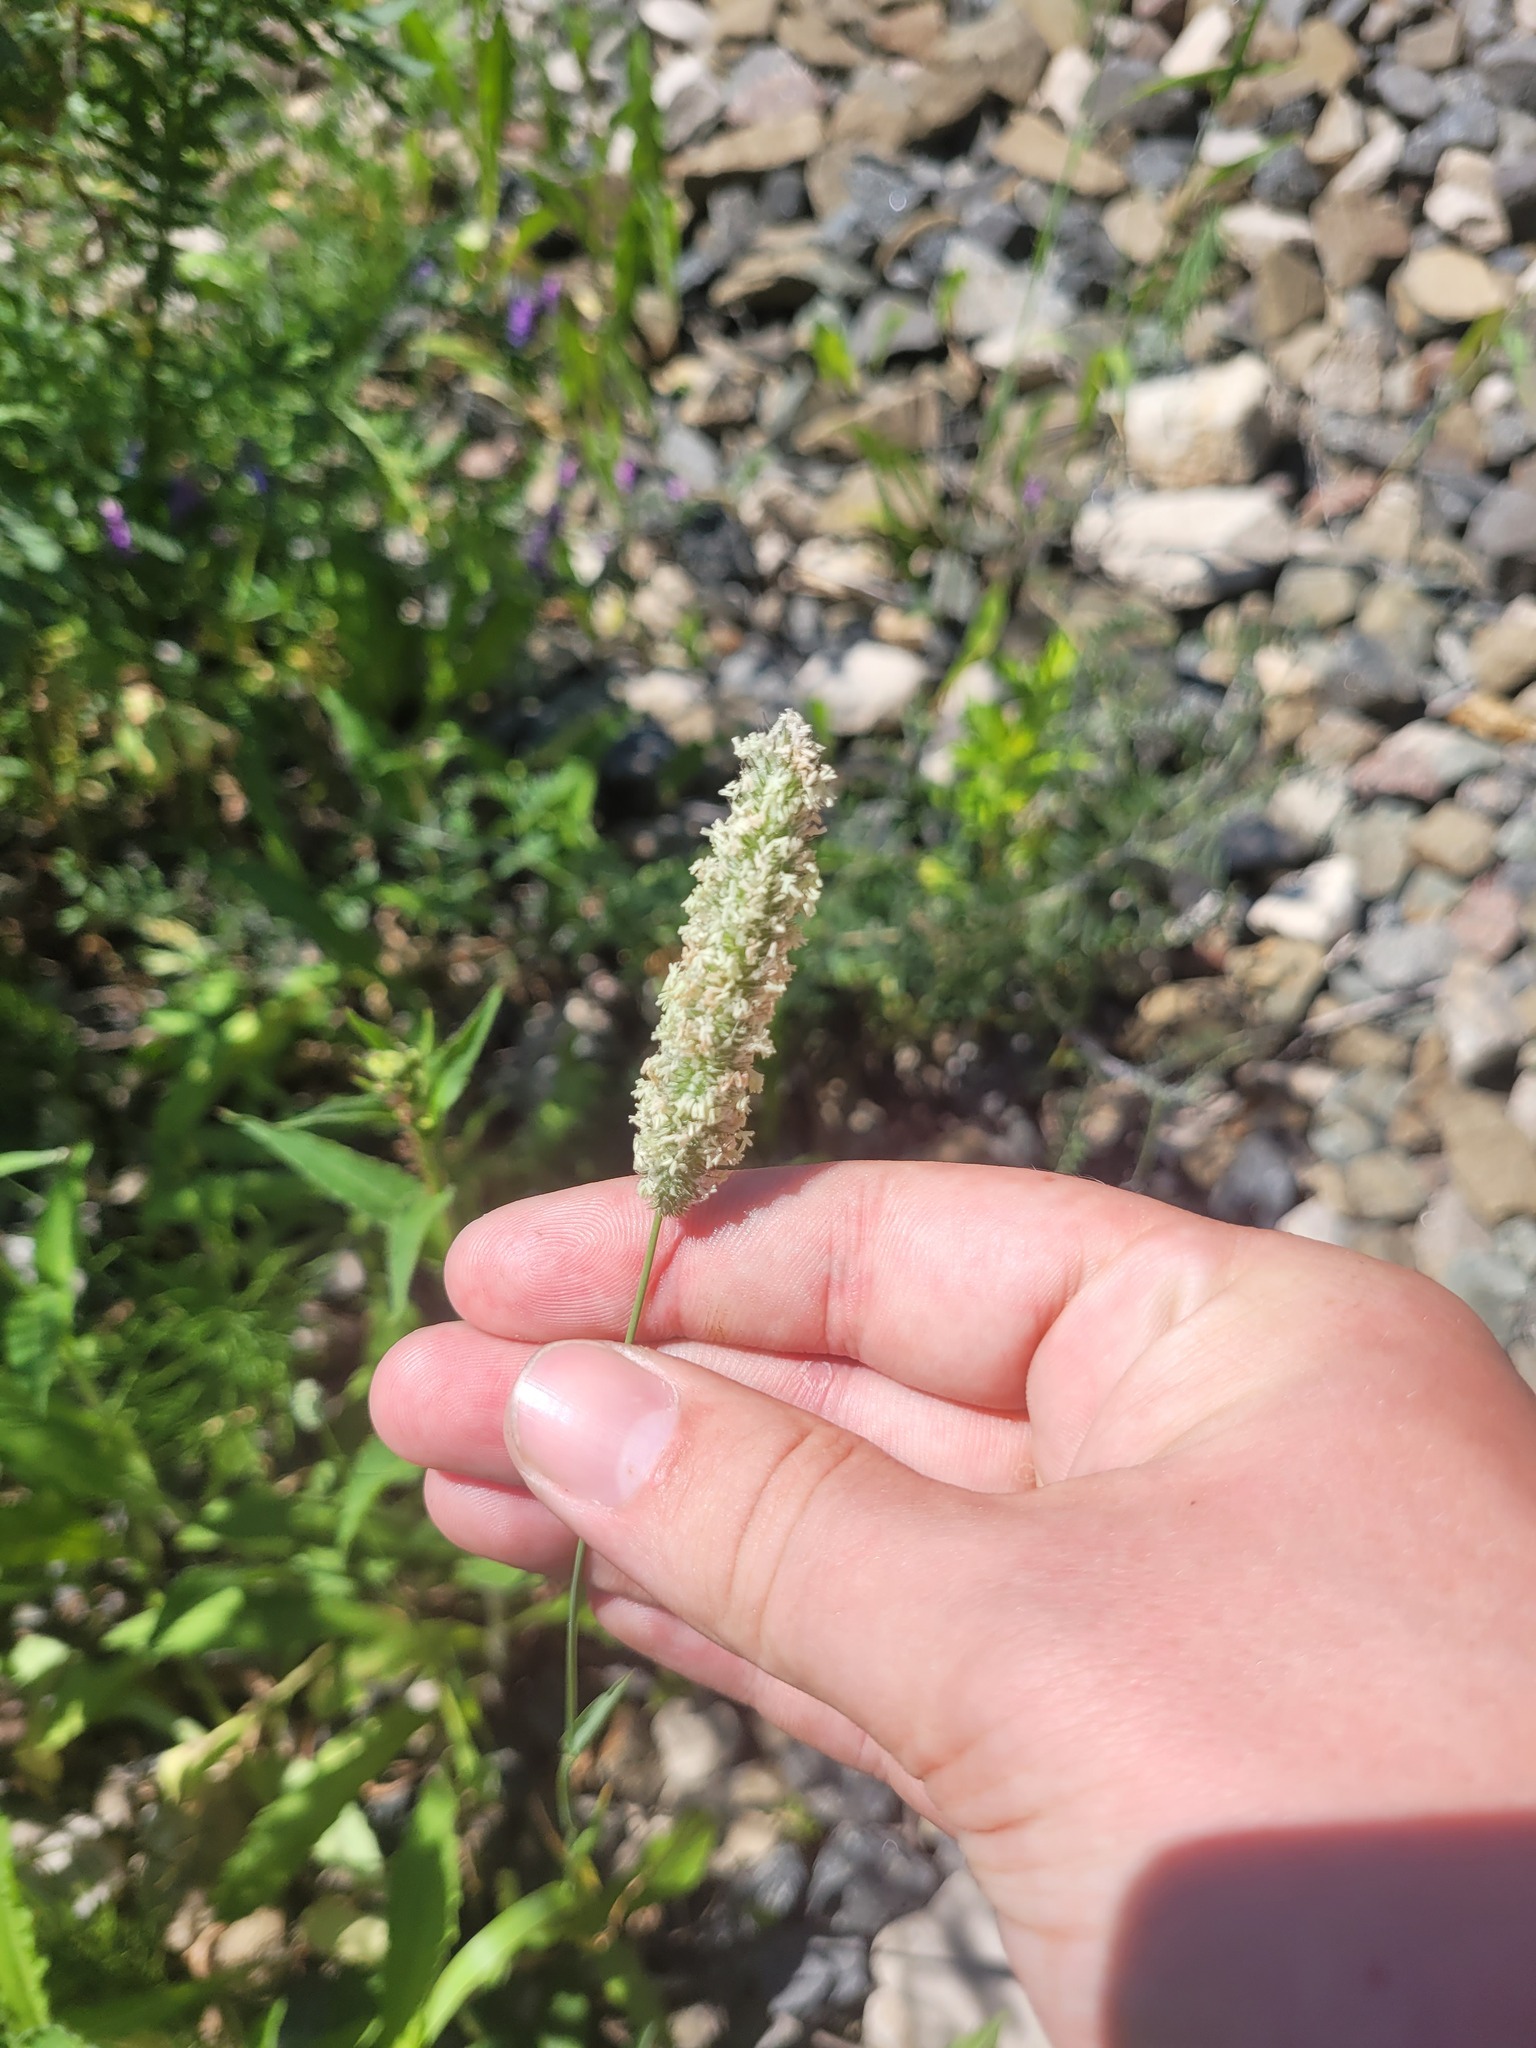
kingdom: Plantae
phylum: Tracheophyta
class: Liliopsida
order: Poales
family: Poaceae
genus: Phleum
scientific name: Phleum pratense
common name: Timothy grass
